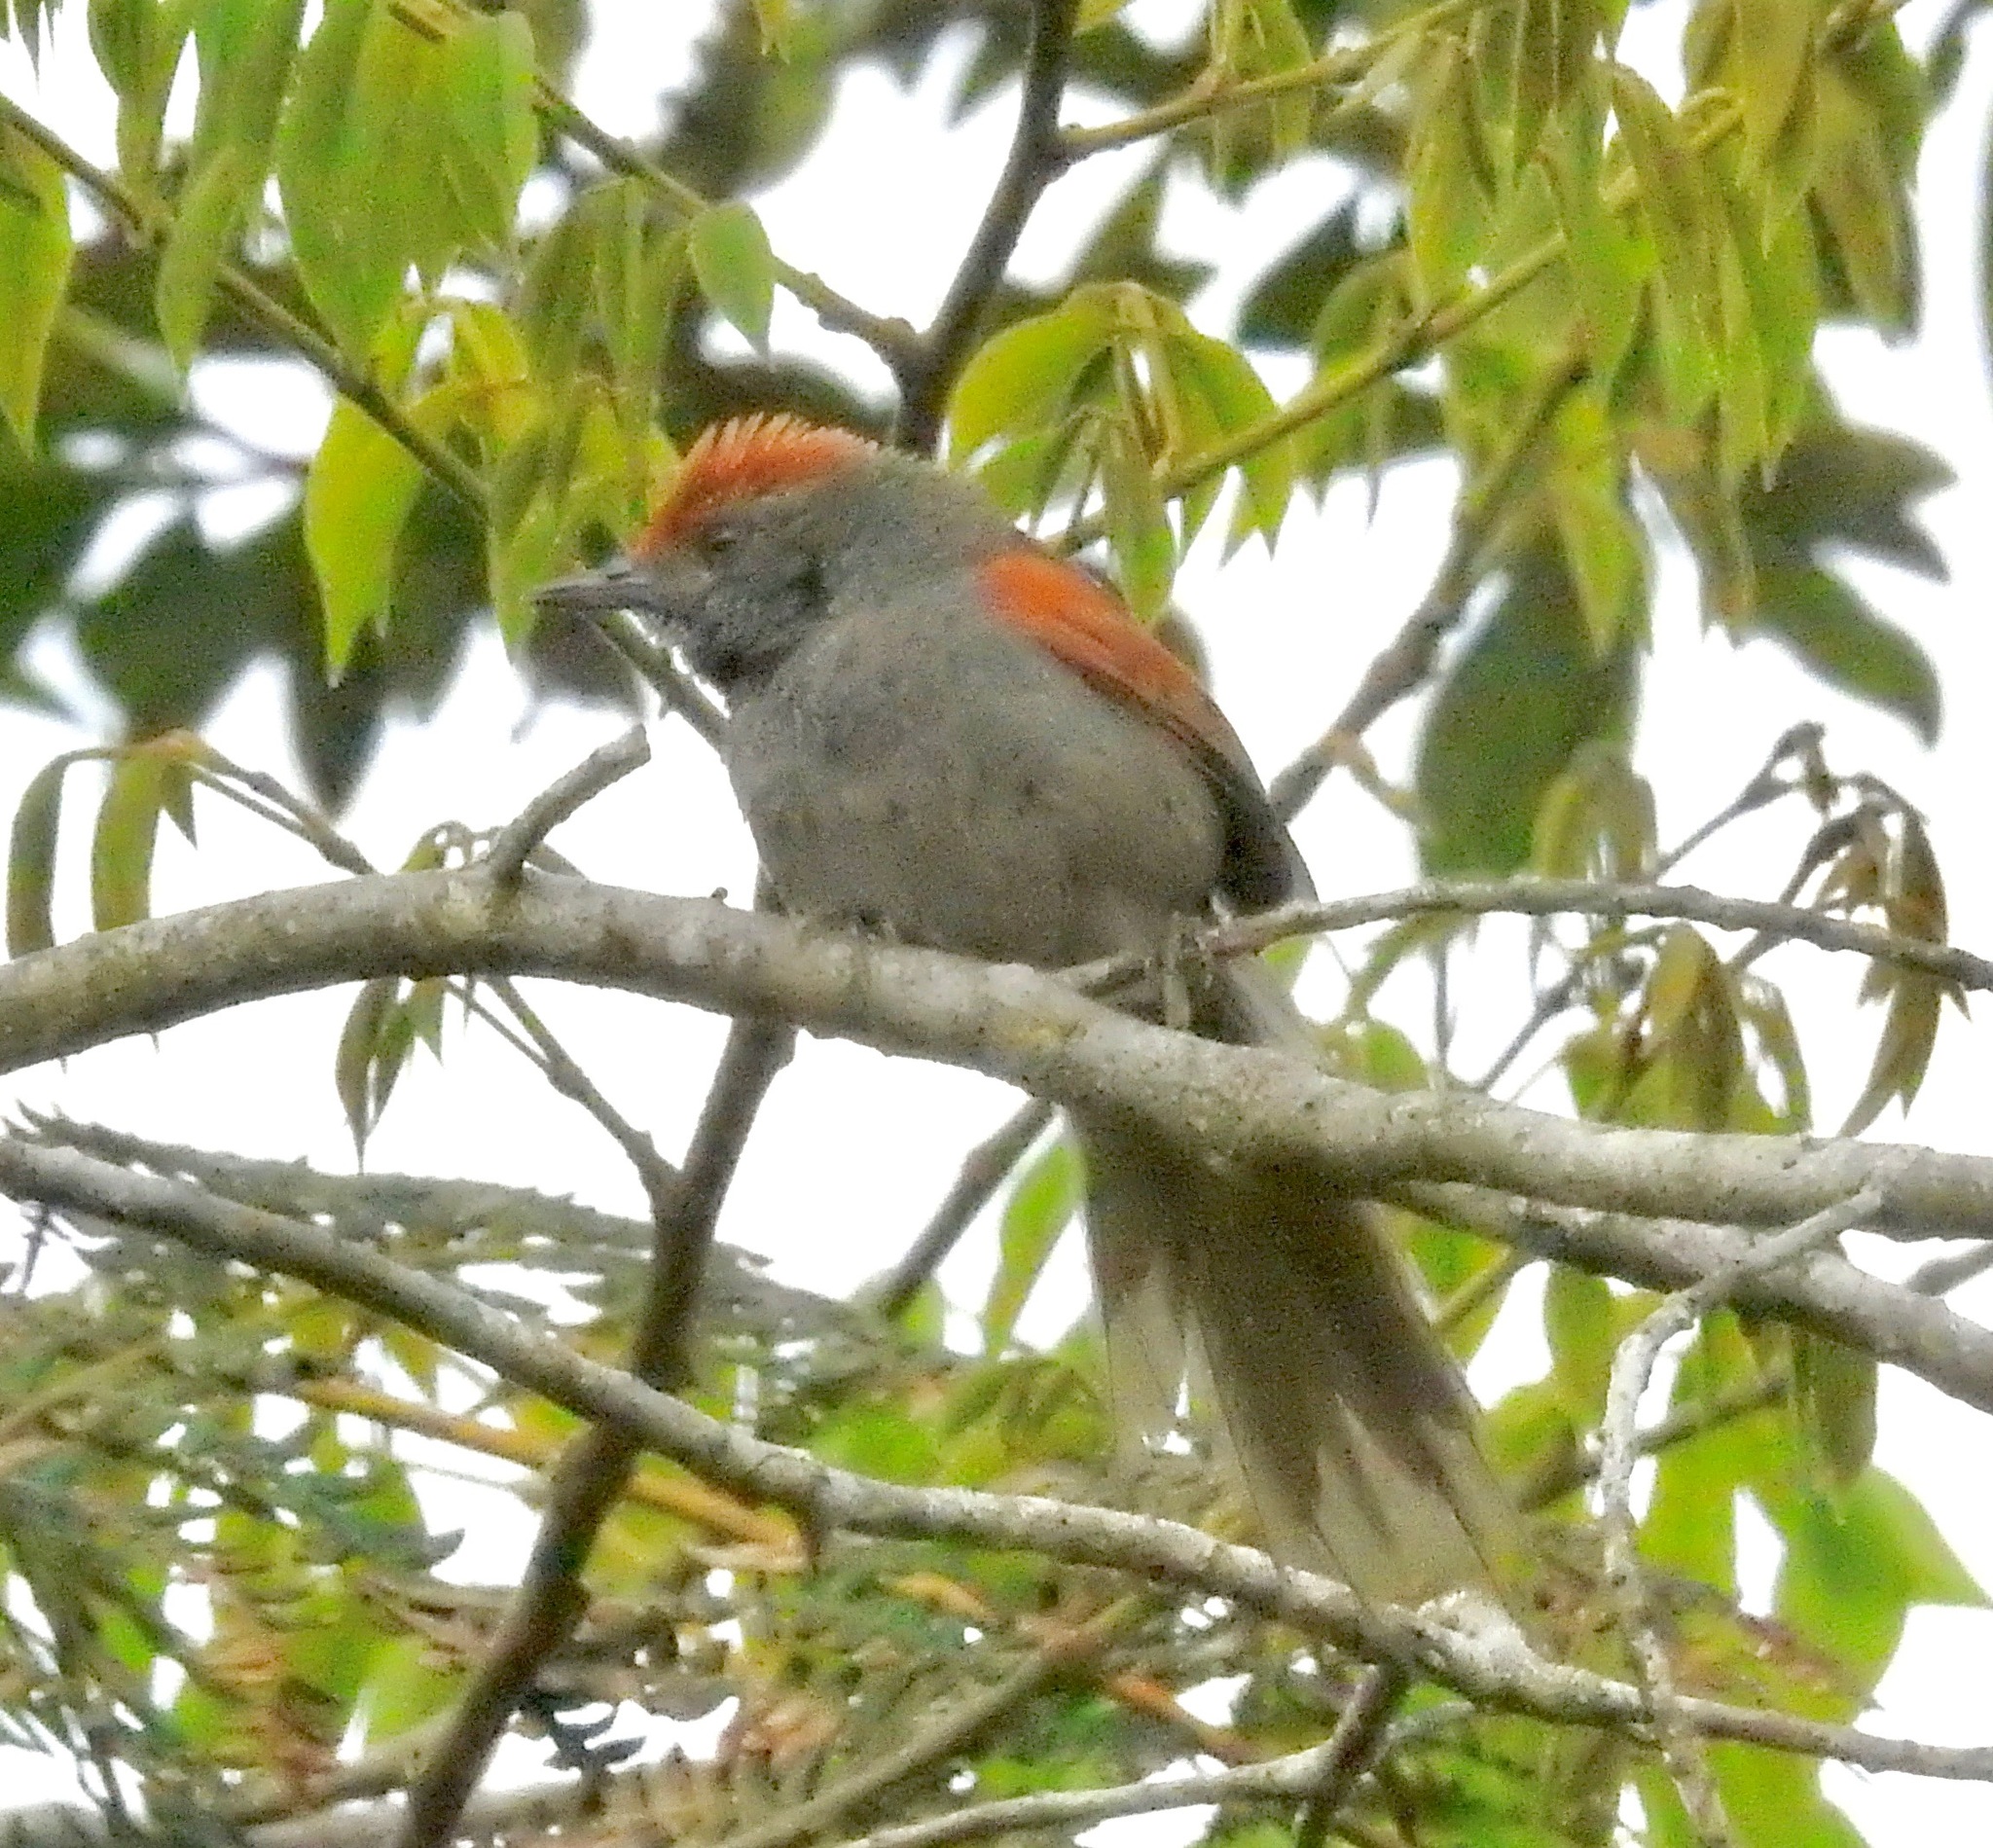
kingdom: Animalia
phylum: Chordata
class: Aves
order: Passeriformes
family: Furnariidae
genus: Synallaxis
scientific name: Synallaxis spixi
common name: Spix's spinetail
